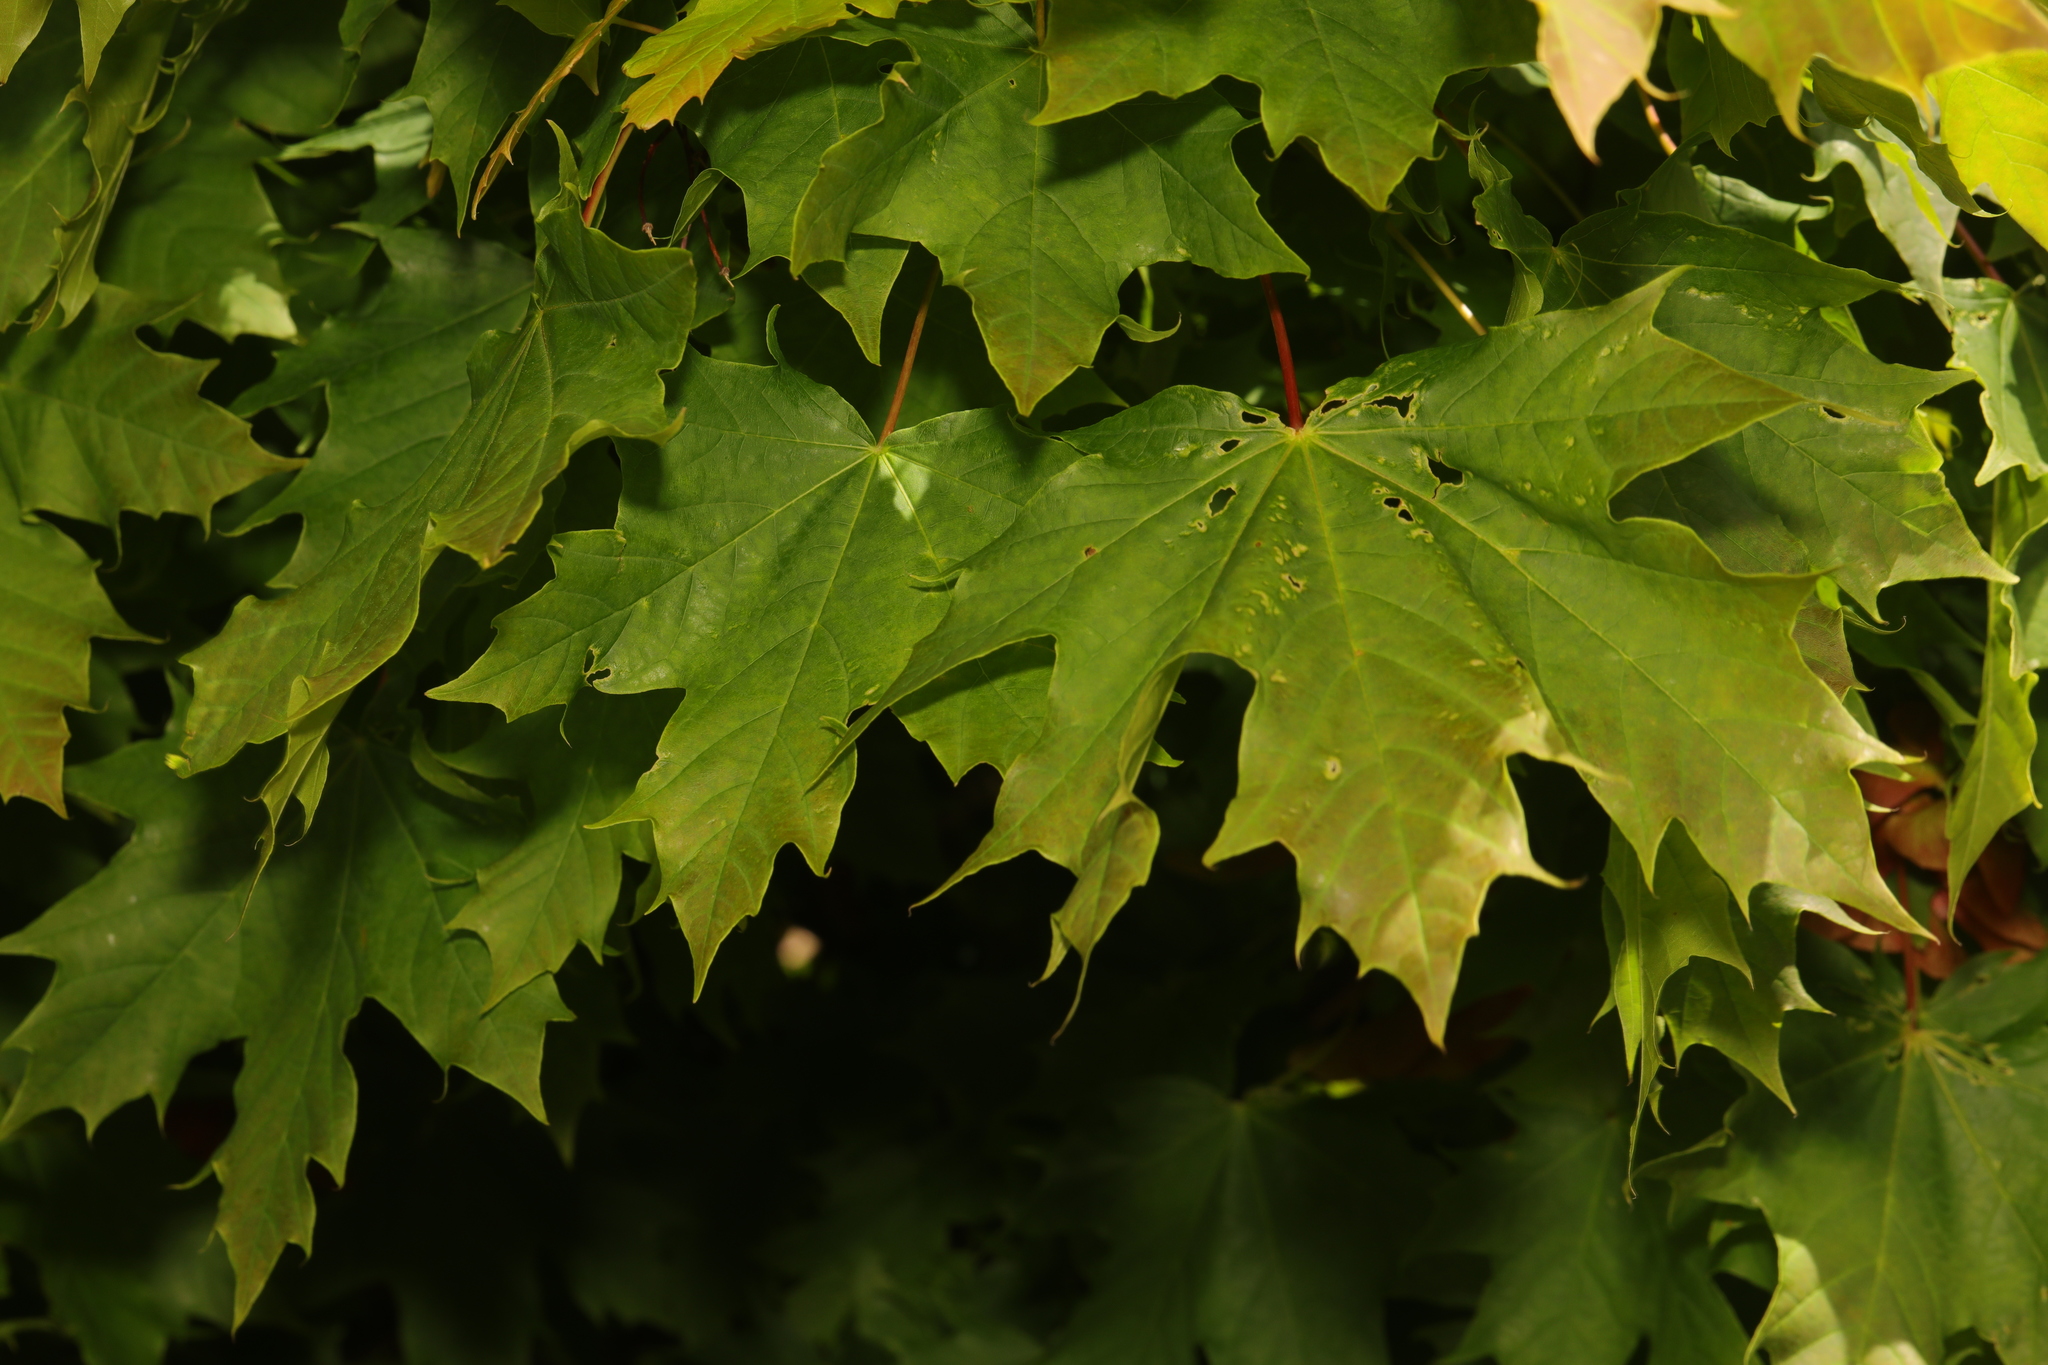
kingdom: Plantae
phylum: Tracheophyta
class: Magnoliopsida
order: Sapindales
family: Sapindaceae
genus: Acer
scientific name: Acer platanoides
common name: Norway maple
